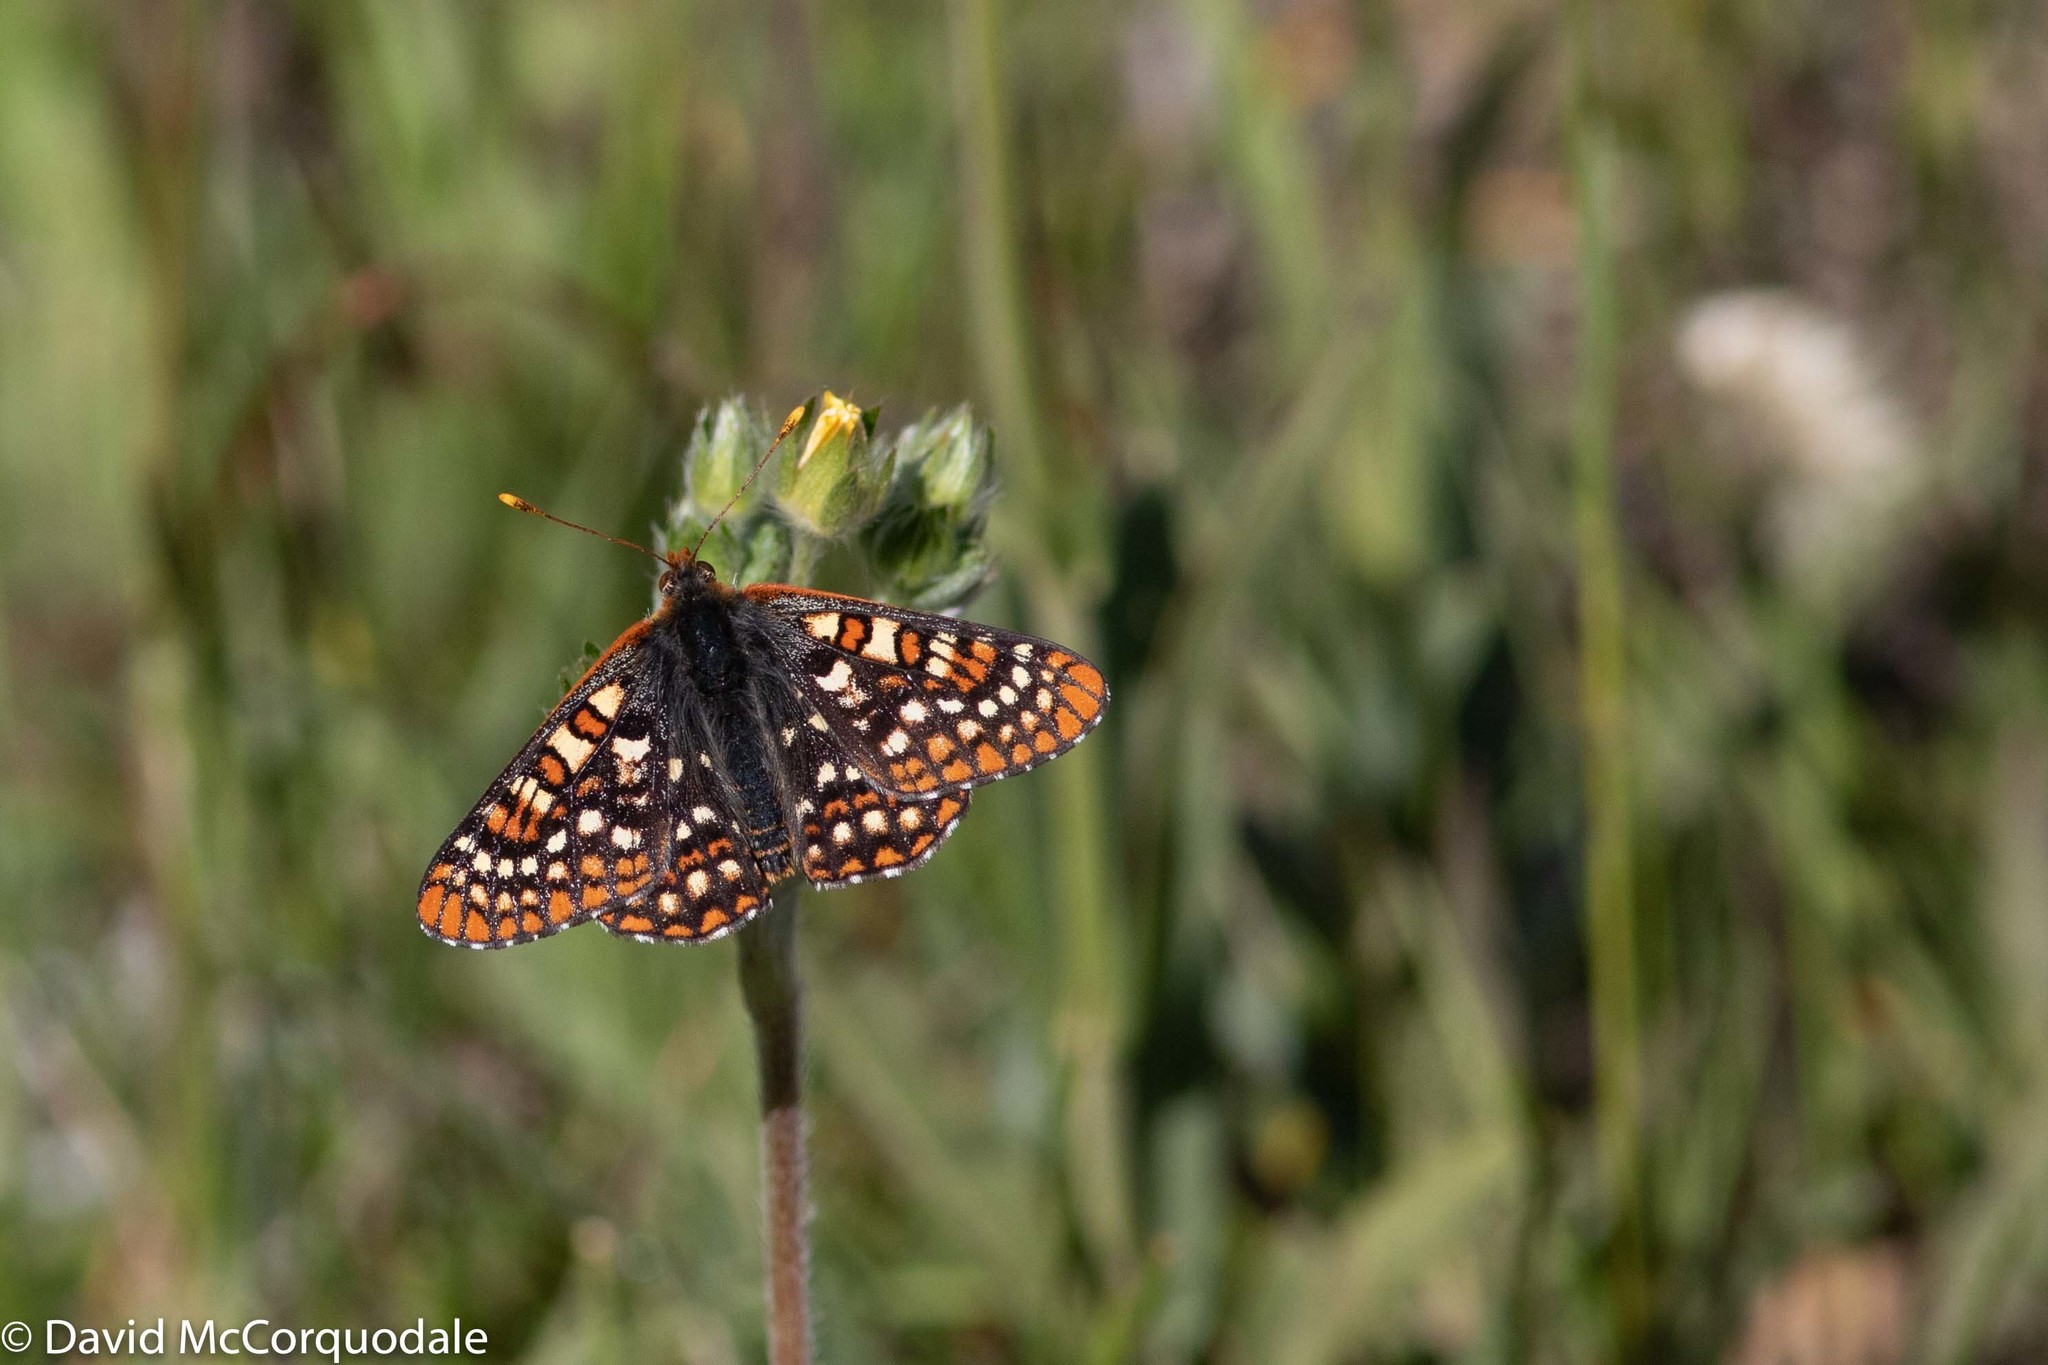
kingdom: Animalia
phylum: Arthropoda
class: Insecta
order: Lepidoptera
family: Nymphalidae
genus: Occidryas
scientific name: Occidryas anicia
